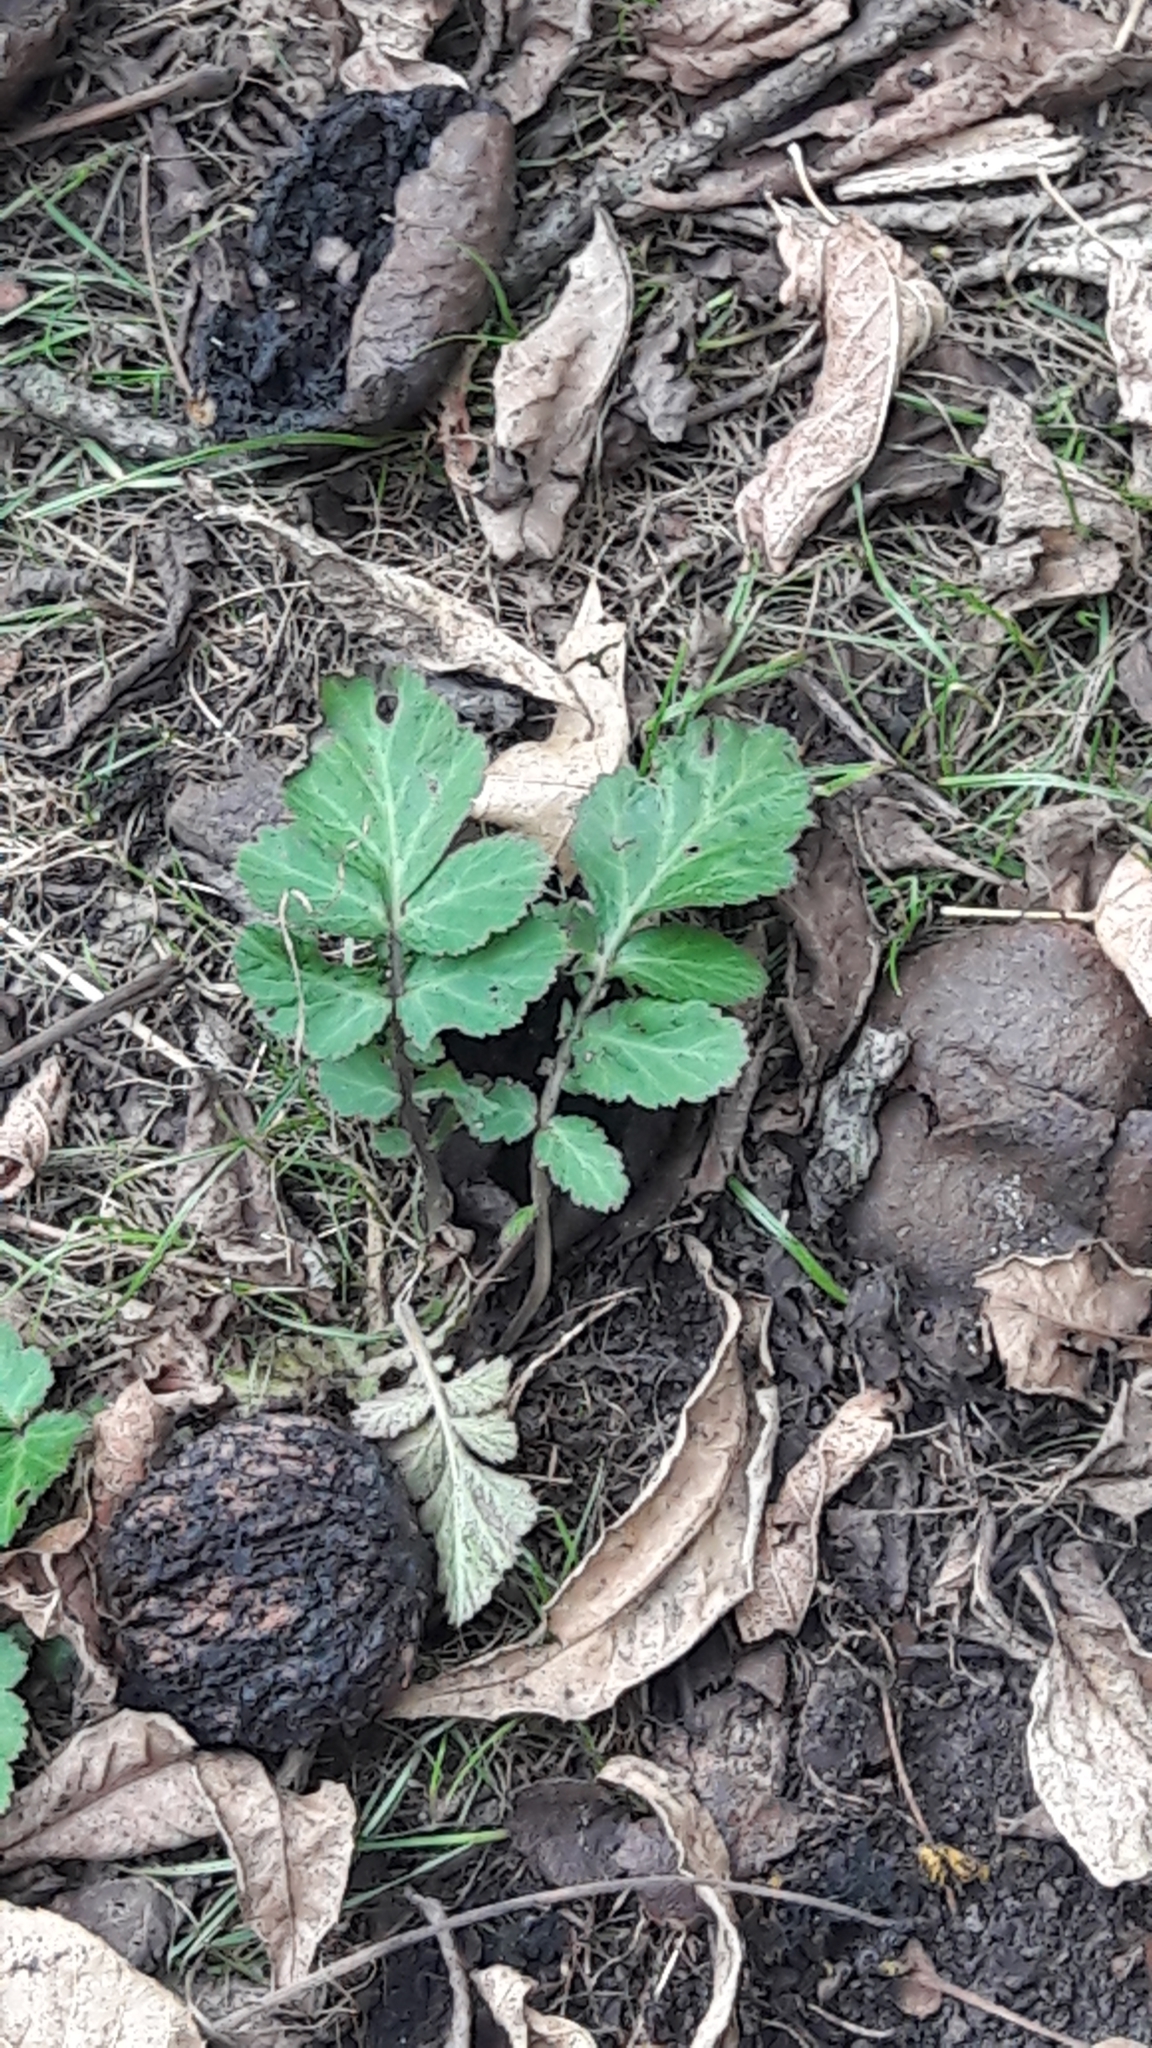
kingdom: Plantae
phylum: Tracheophyta
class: Magnoliopsida
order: Rosales
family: Rosaceae
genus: Geum
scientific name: Geum canadense
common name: White avens
